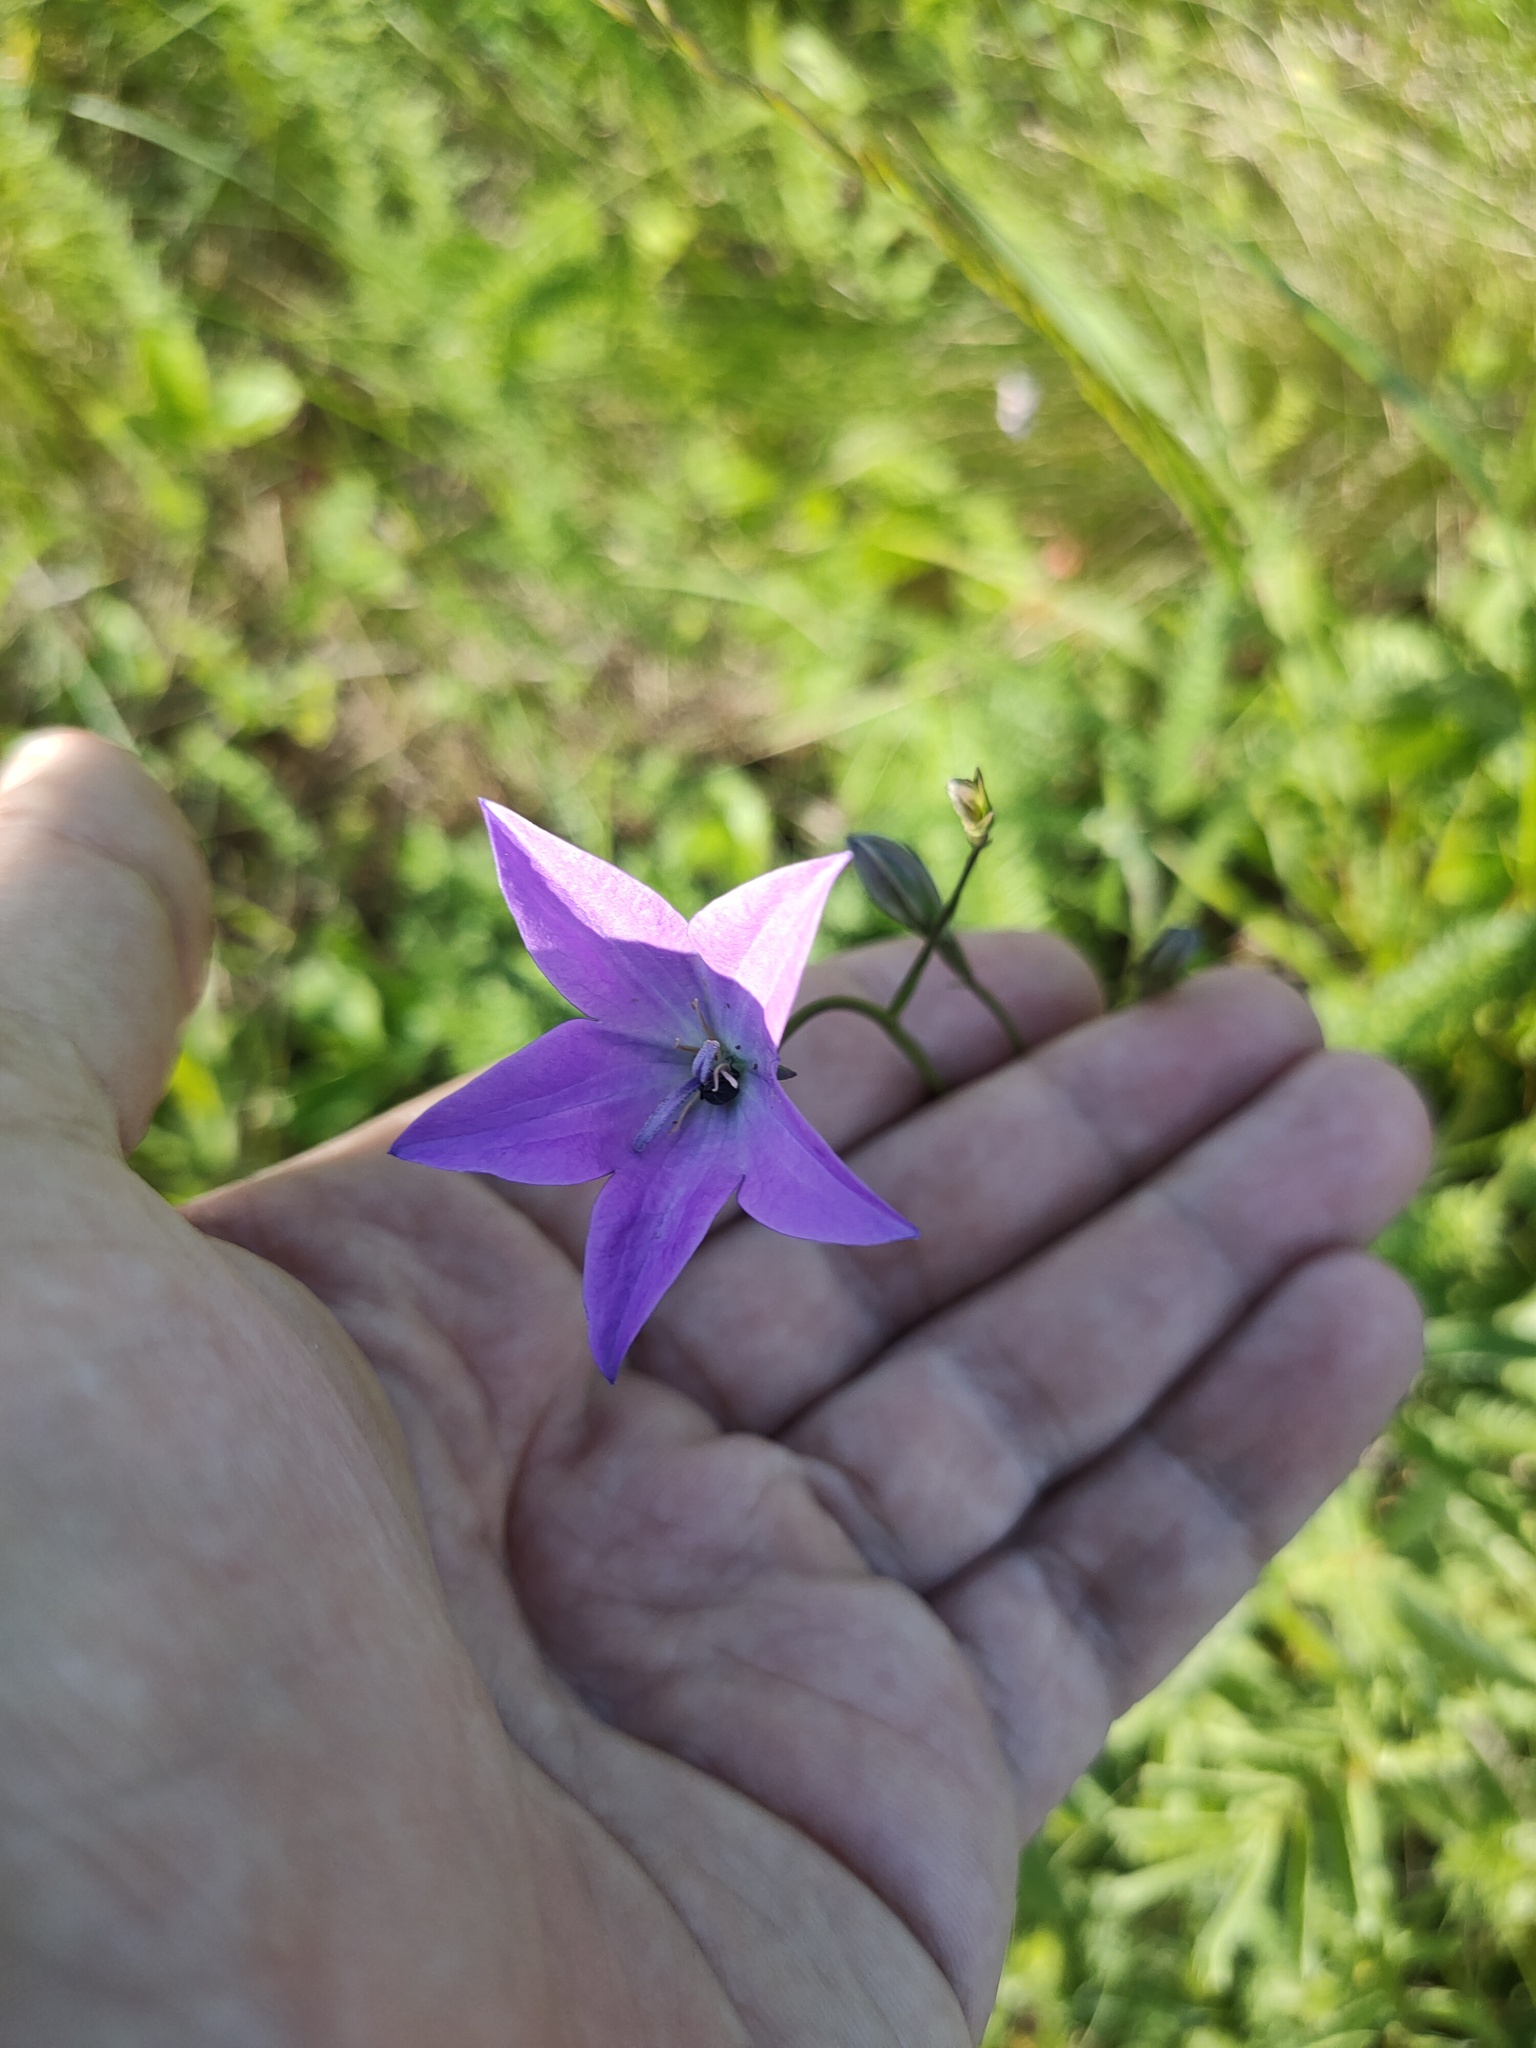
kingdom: Plantae
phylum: Tracheophyta
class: Magnoliopsida
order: Asterales
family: Campanulaceae
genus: Campanula
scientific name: Campanula stevenii
